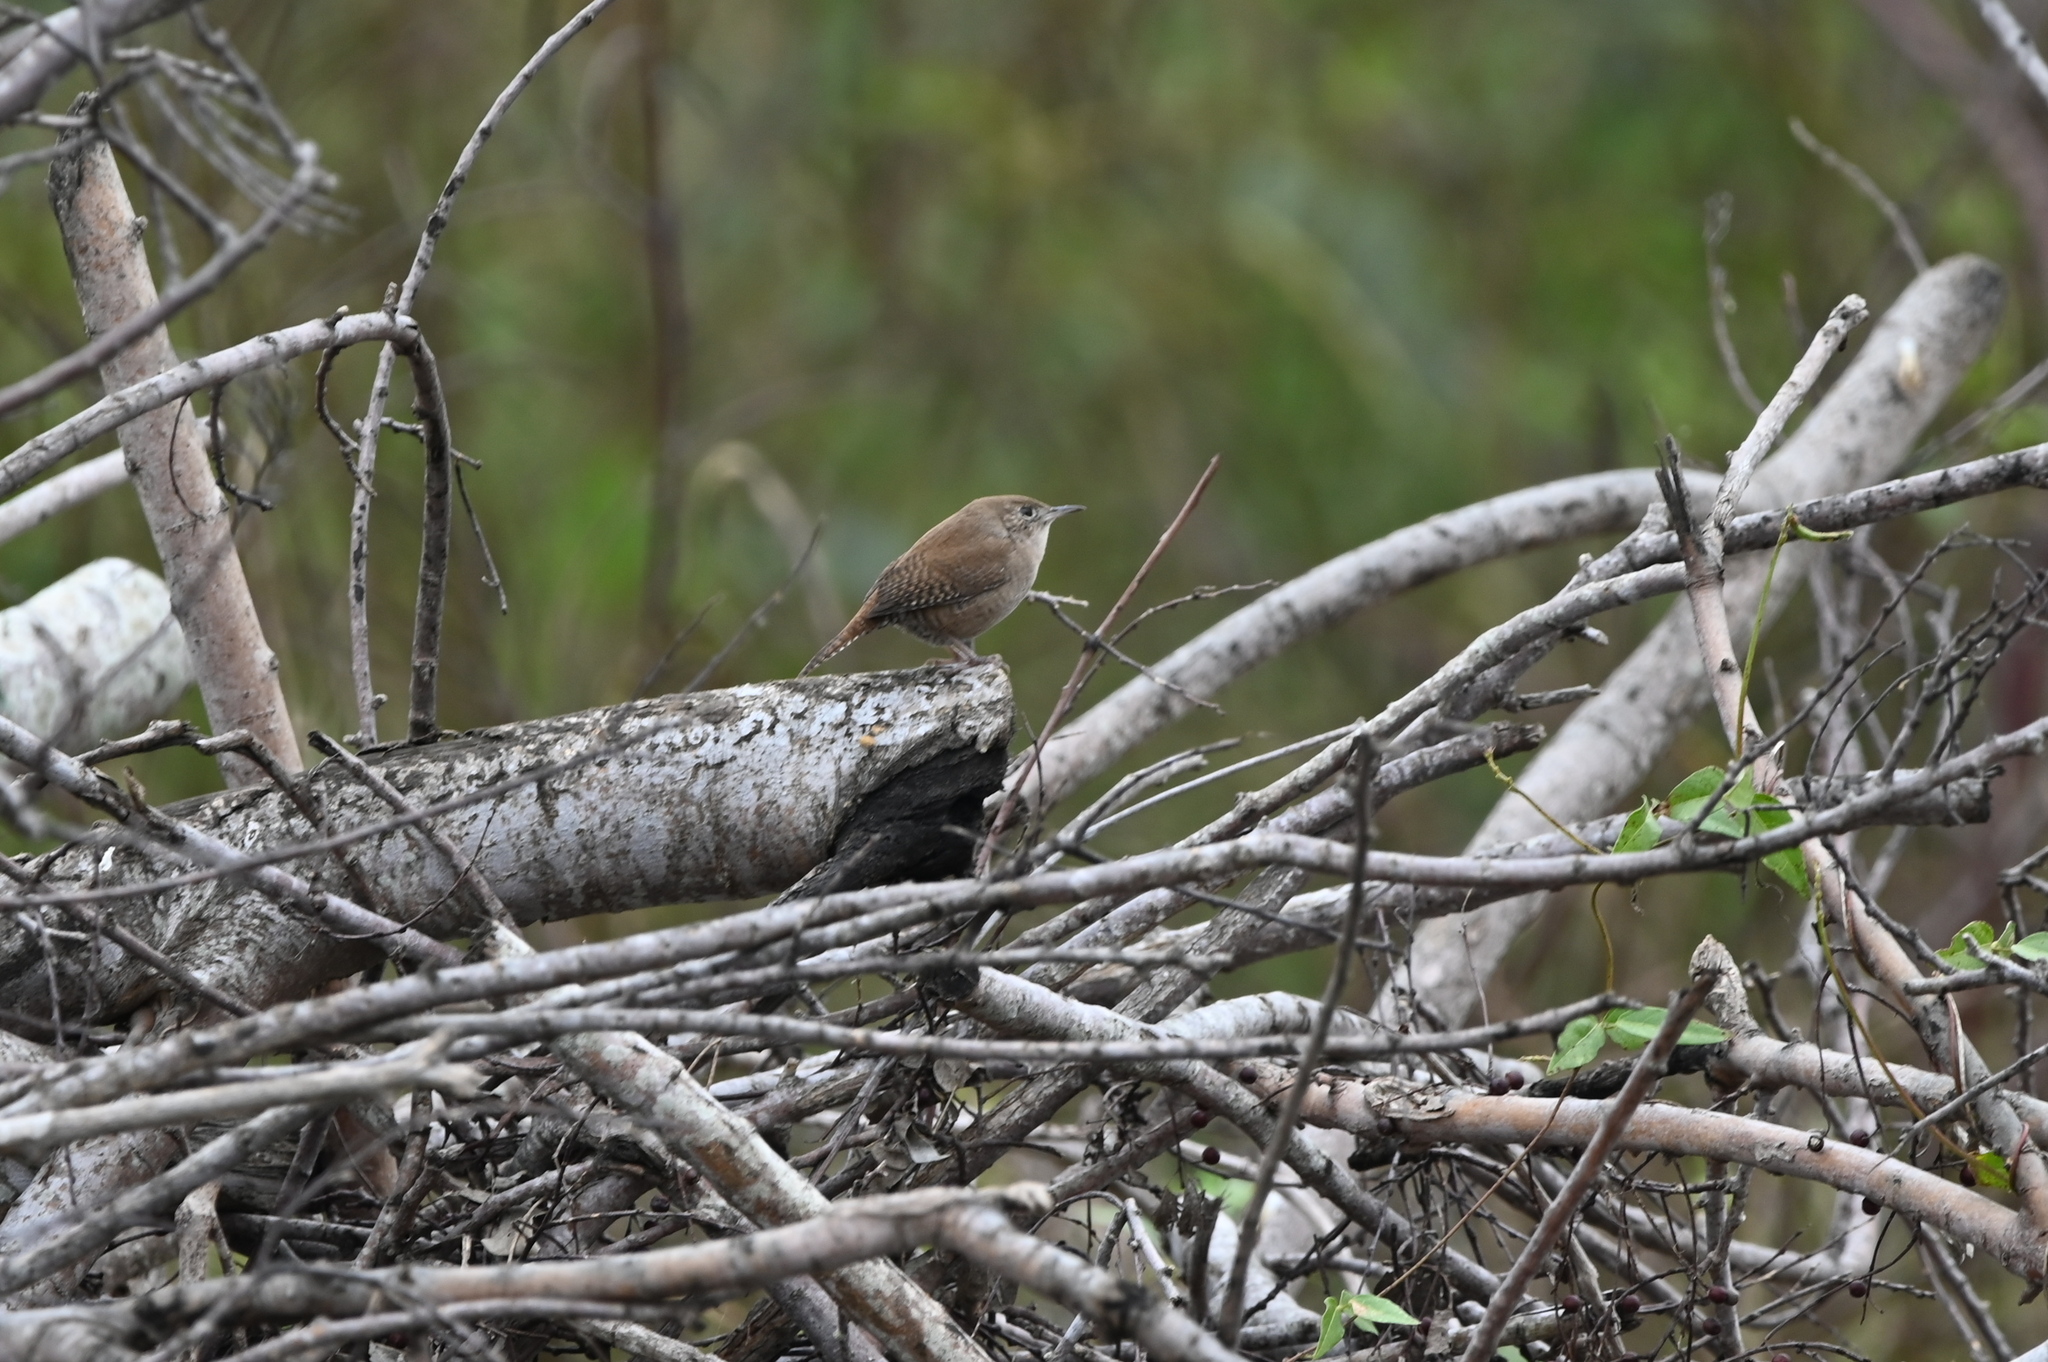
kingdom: Animalia
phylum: Chordata
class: Aves
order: Passeriformes
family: Troglodytidae
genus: Troglodytes
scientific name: Troglodytes aedon
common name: House wren
